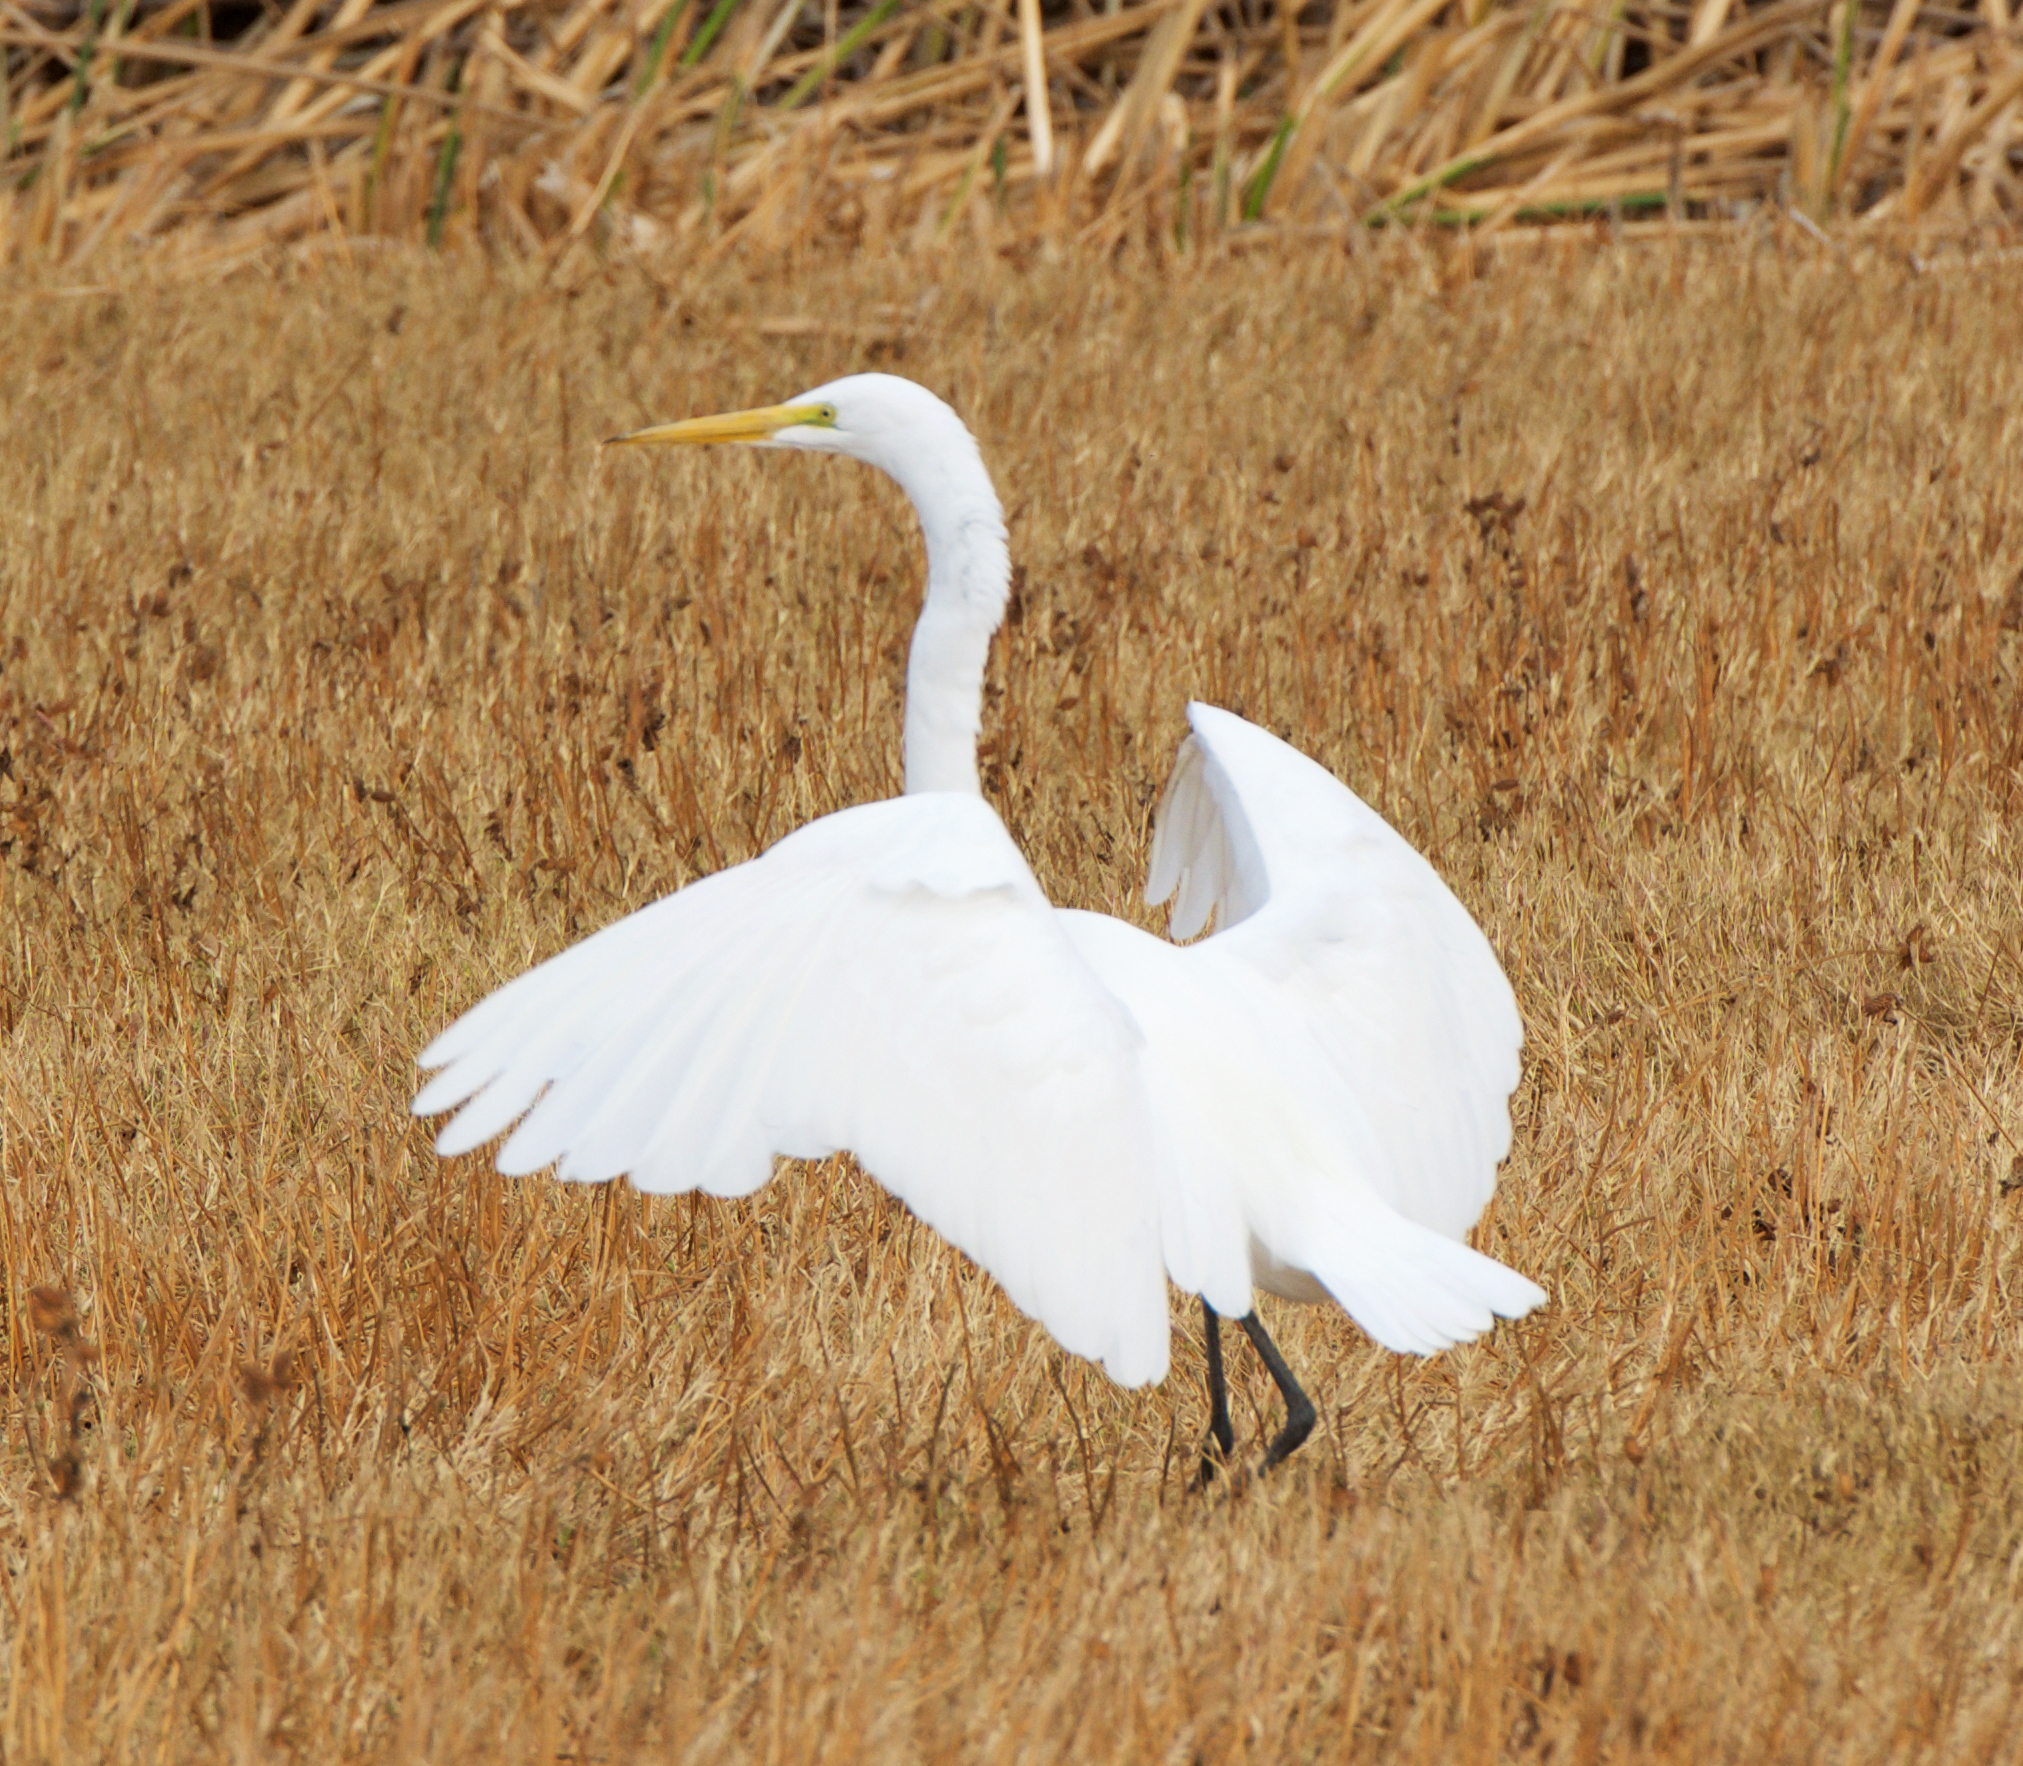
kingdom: Animalia
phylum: Chordata
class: Aves
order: Pelecaniformes
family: Ardeidae
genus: Ardea
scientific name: Ardea alba
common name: Great egret
